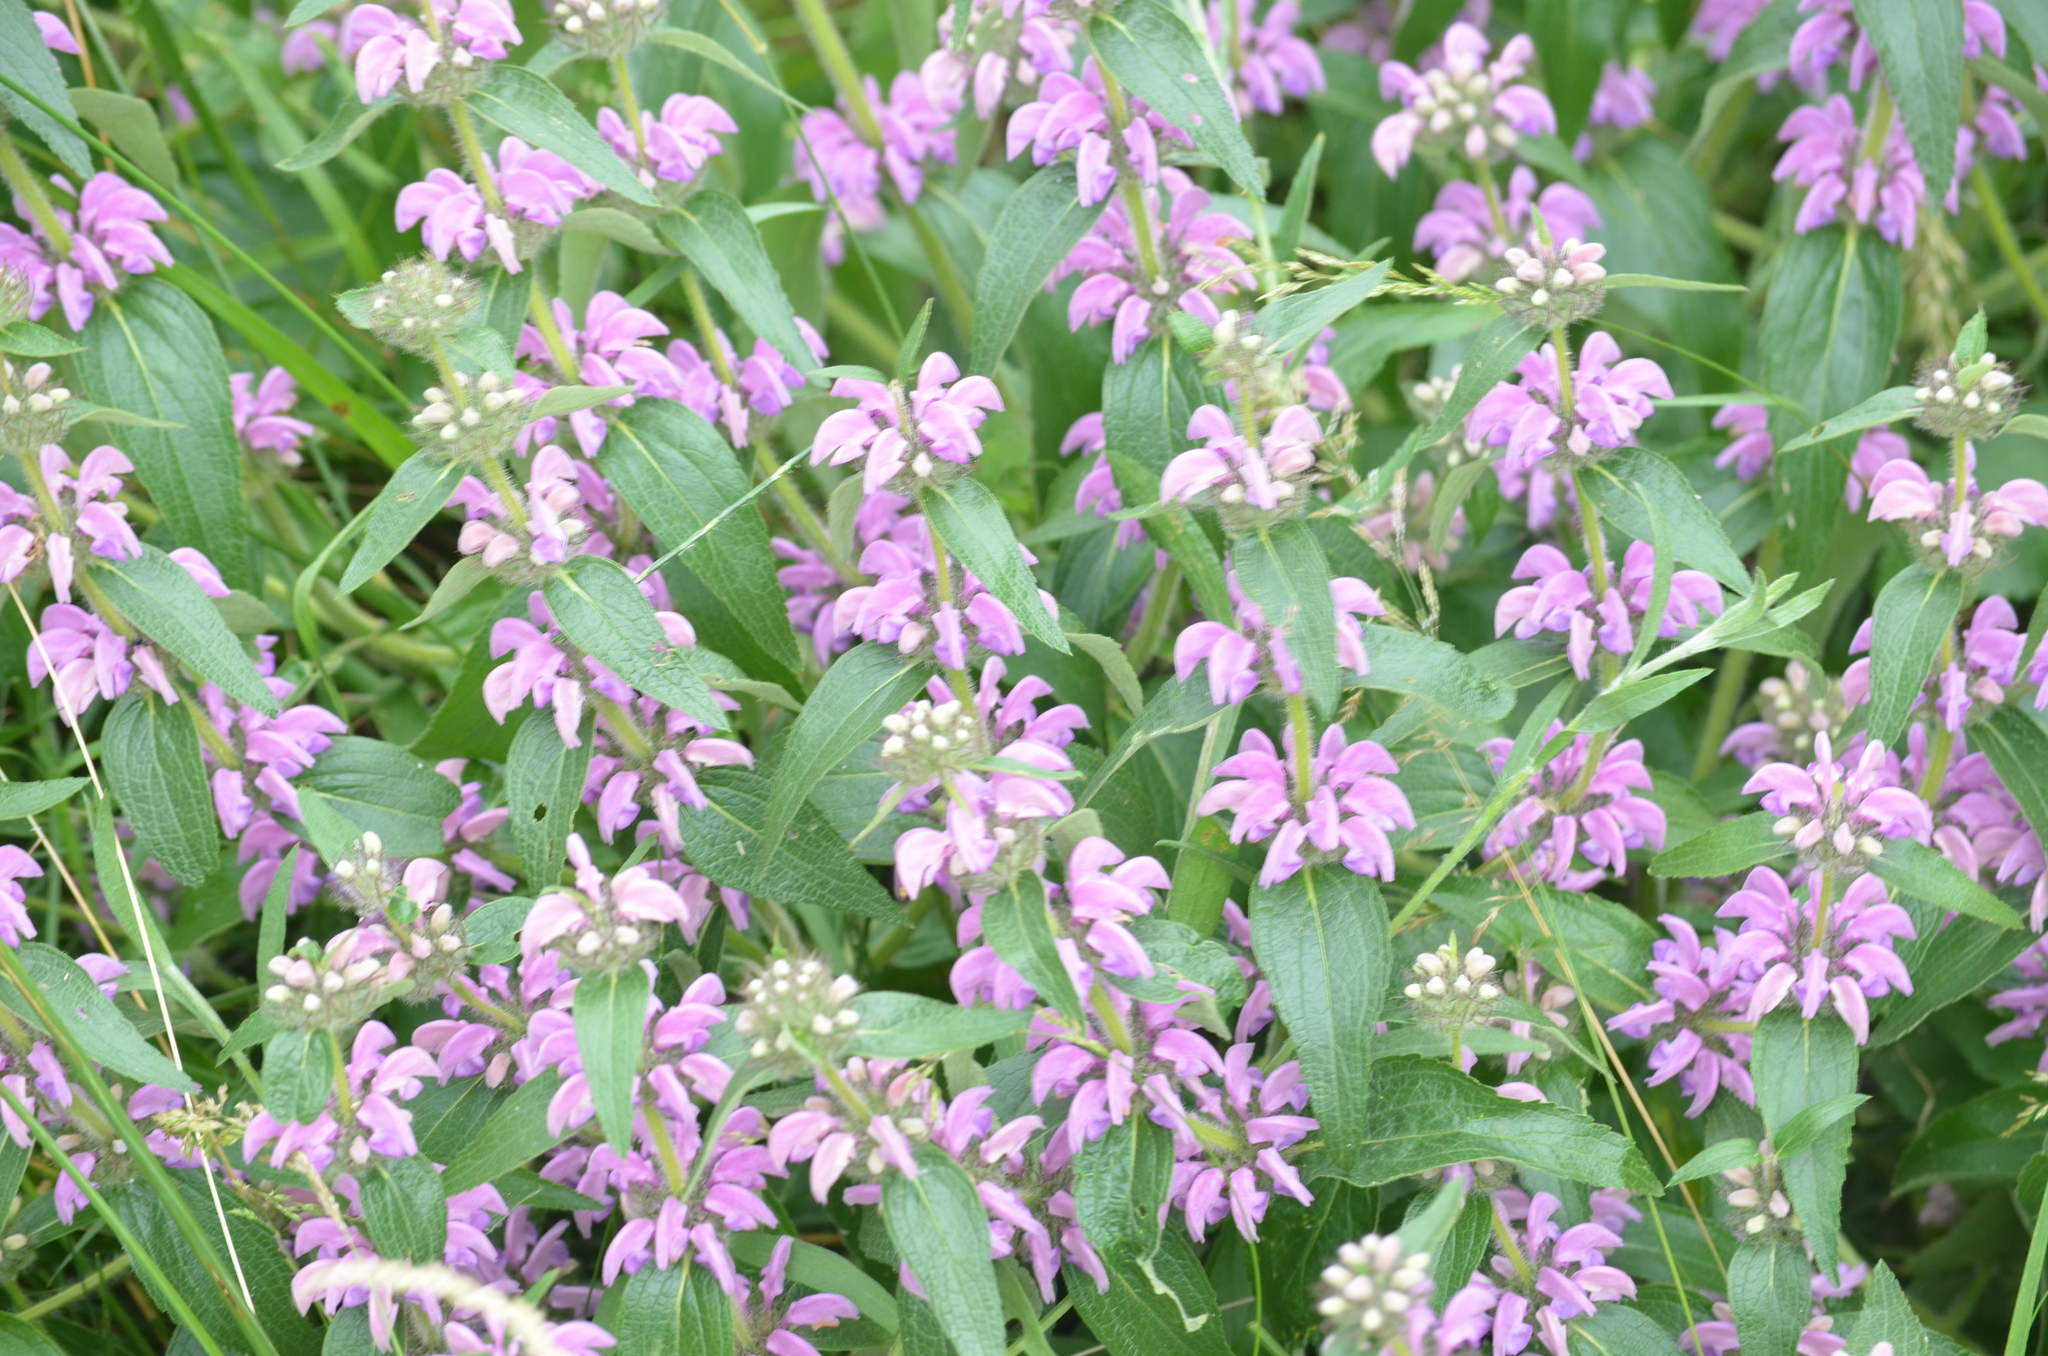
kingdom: Plantae
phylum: Tracheophyta
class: Magnoliopsida
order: Lamiales
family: Lamiaceae
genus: Phlomis
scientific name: Phlomis herba-venti
